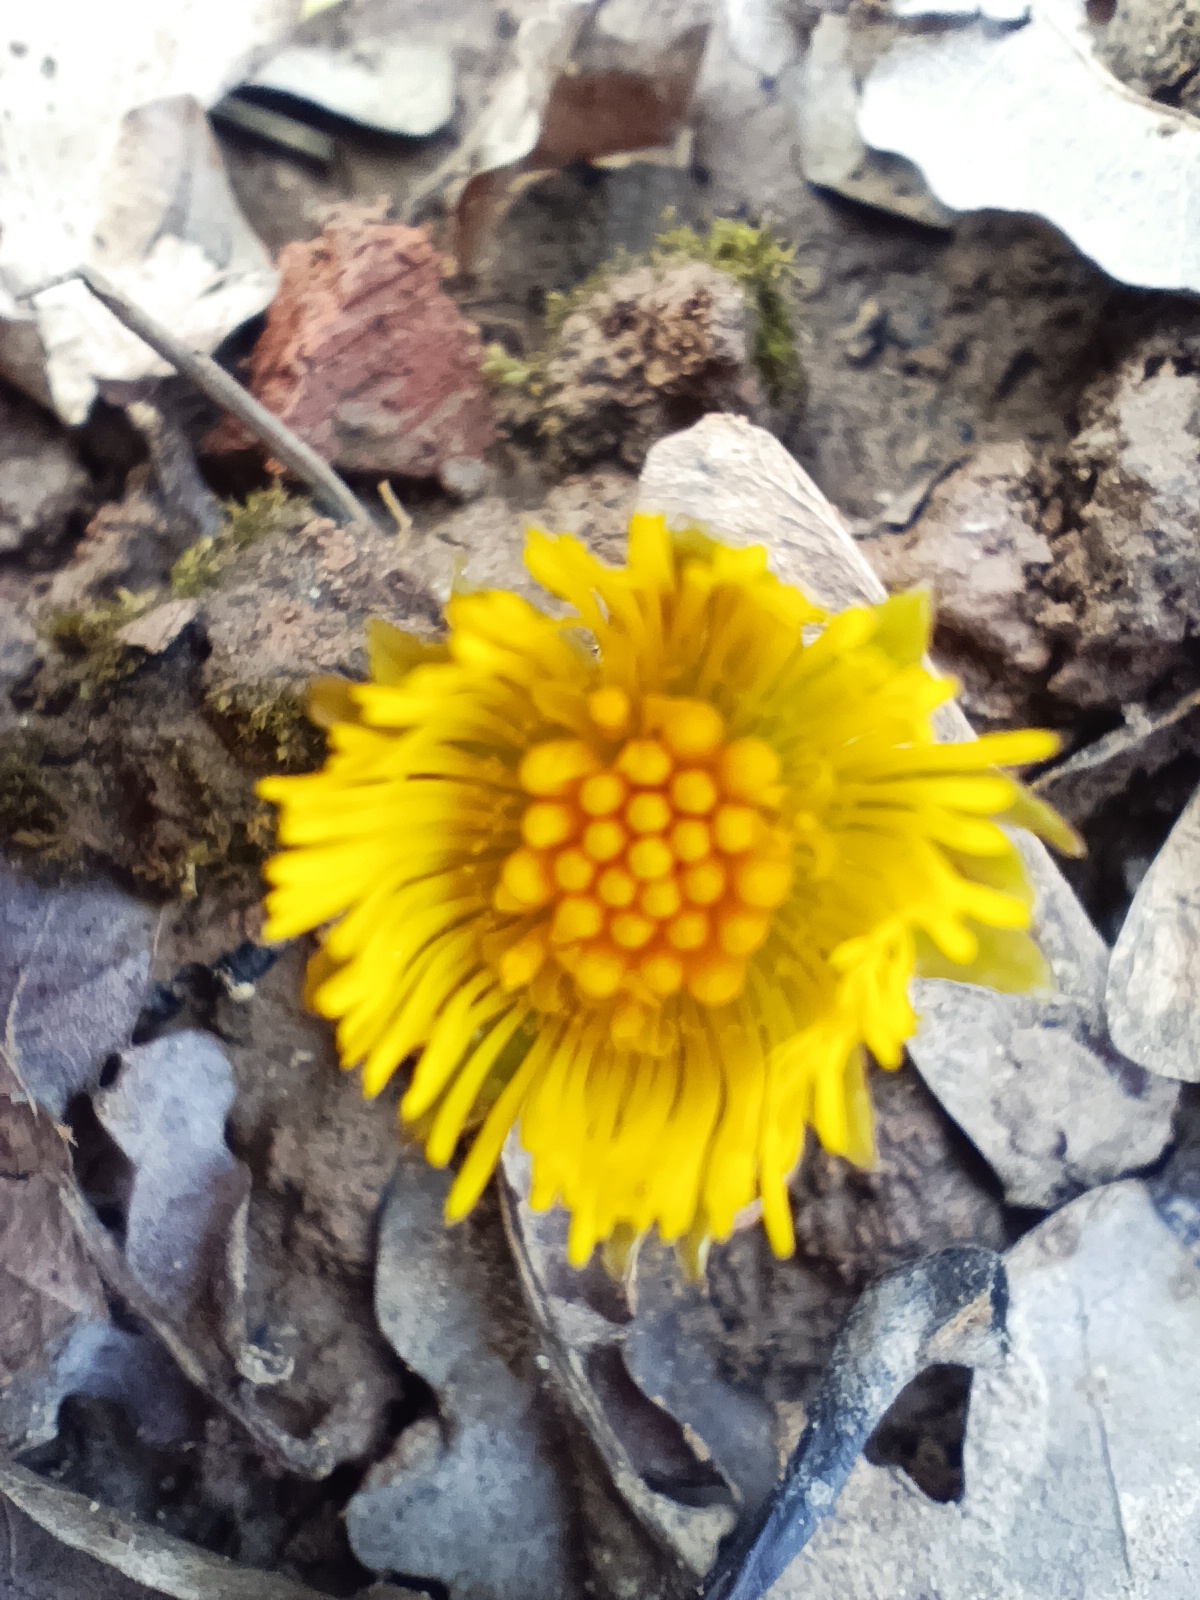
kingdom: Plantae
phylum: Tracheophyta
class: Magnoliopsida
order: Asterales
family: Asteraceae
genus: Tussilago
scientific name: Tussilago farfara
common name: Coltsfoot
